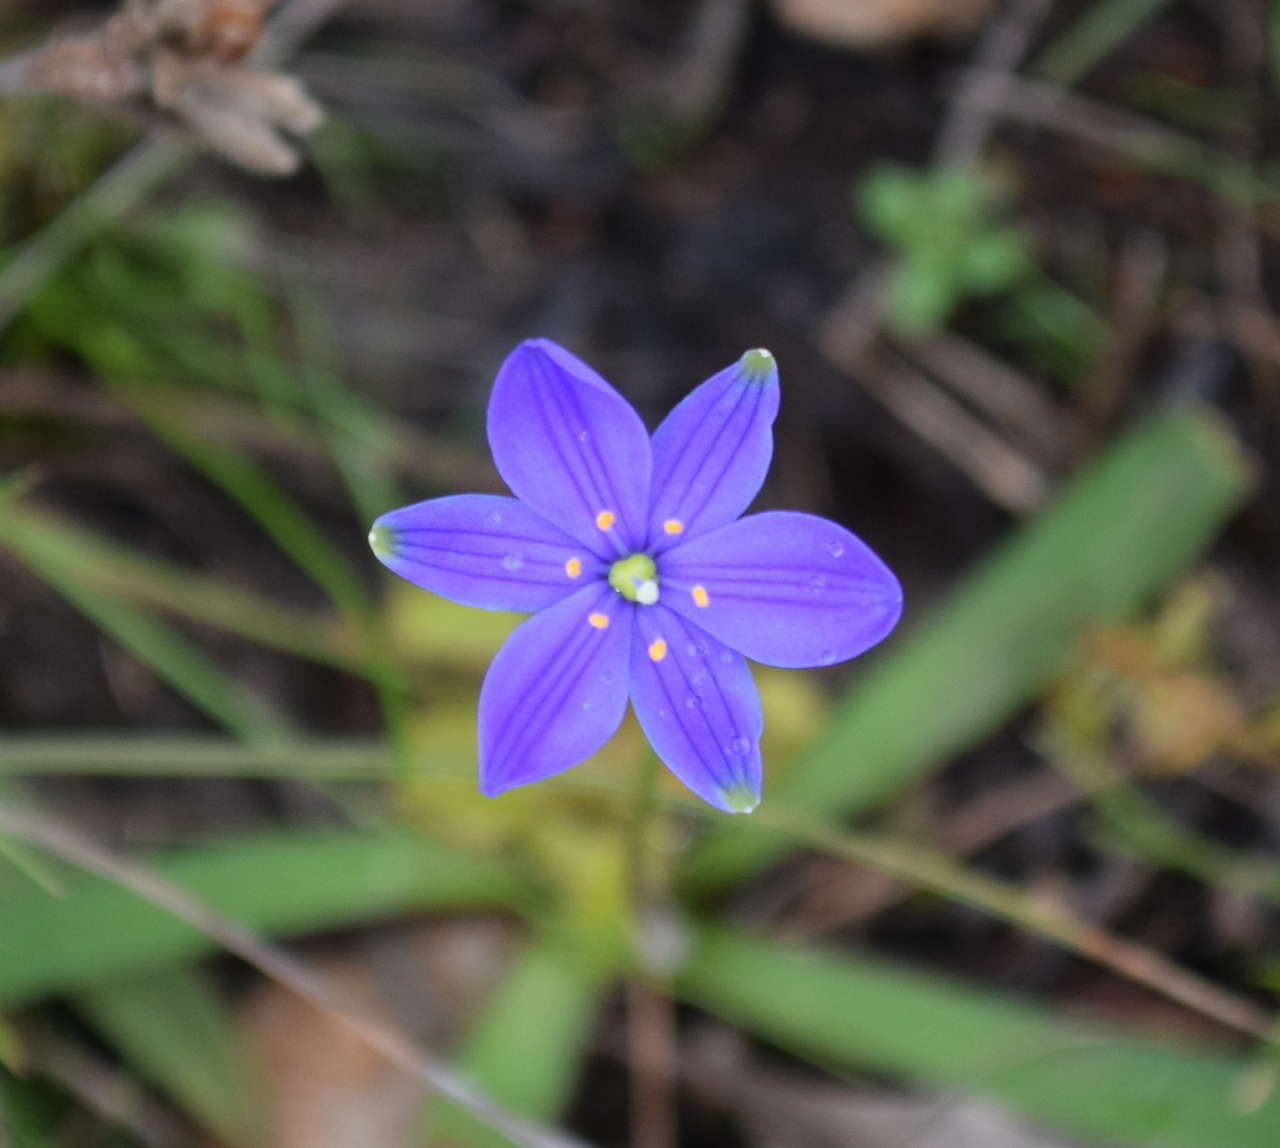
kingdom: Plantae
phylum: Tracheophyta
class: Liliopsida
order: Asparagales
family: Asphodelaceae
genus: Chamaescilla
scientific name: Chamaescilla corymbosa
